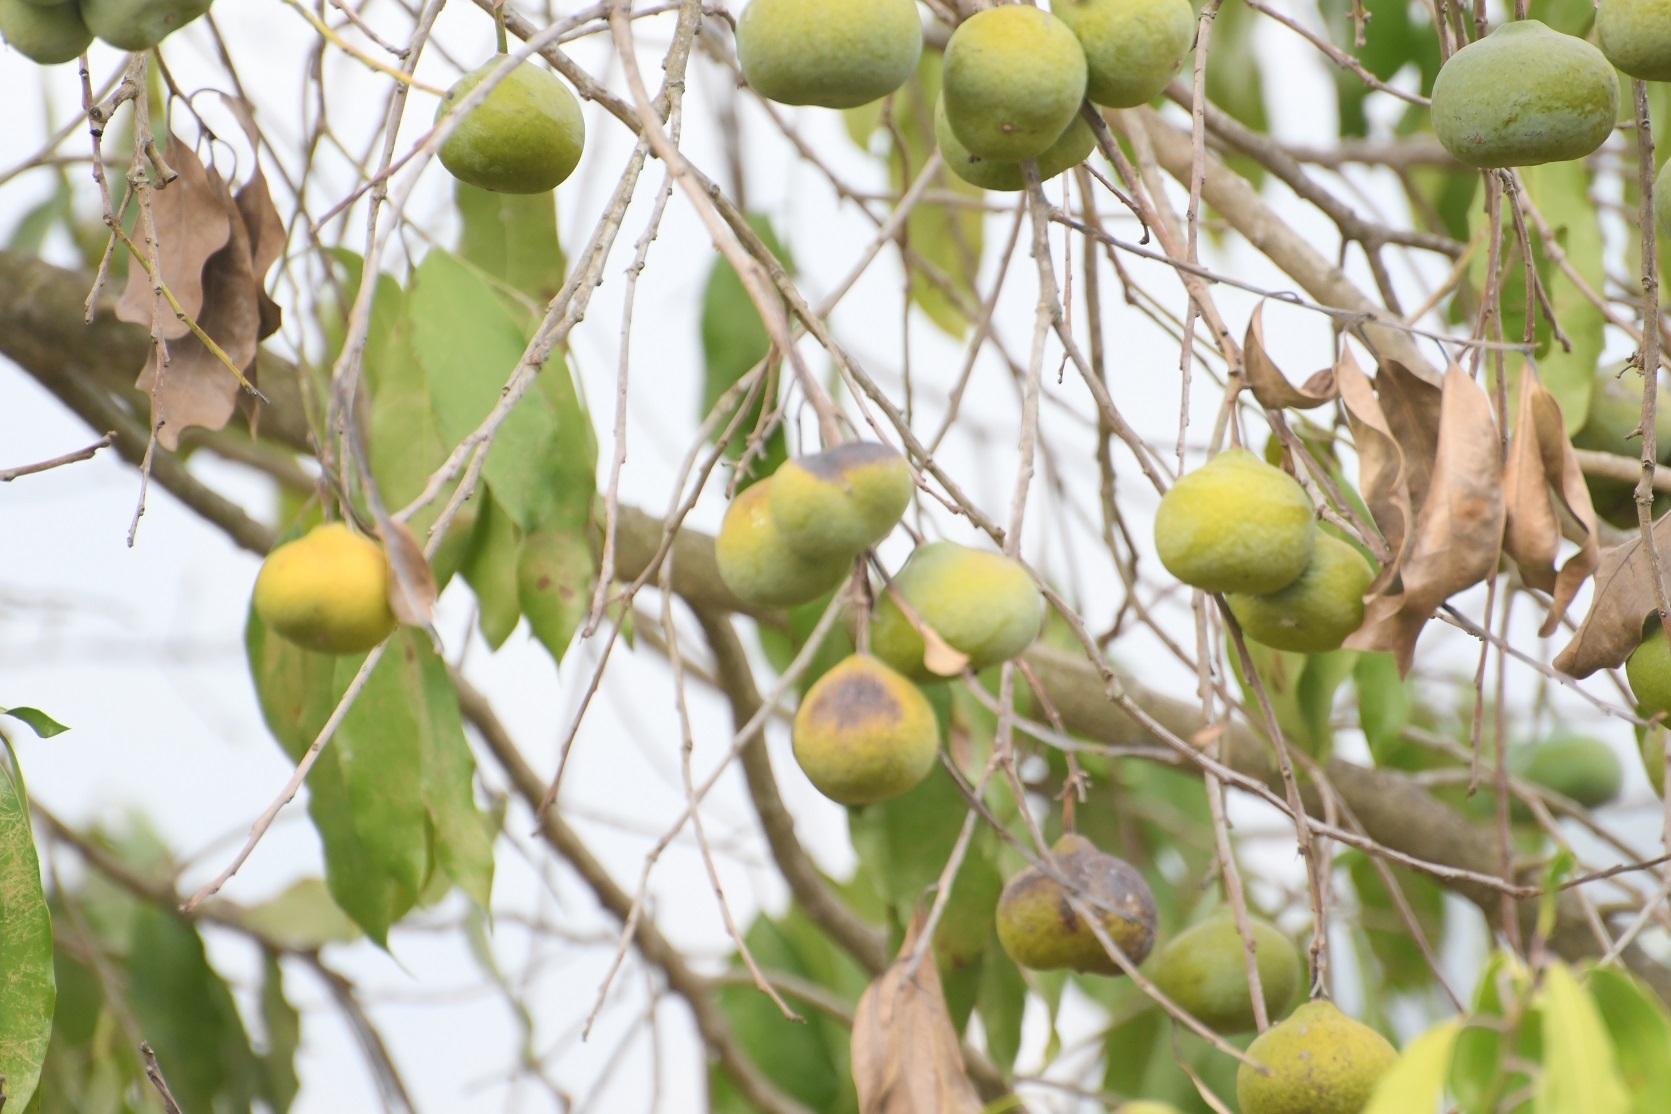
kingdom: Plantae
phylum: Tracheophyta
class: Magnoliopsida
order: Malpighiales
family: Salicaceae
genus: Olmediella
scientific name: Olmediella betschleriana
